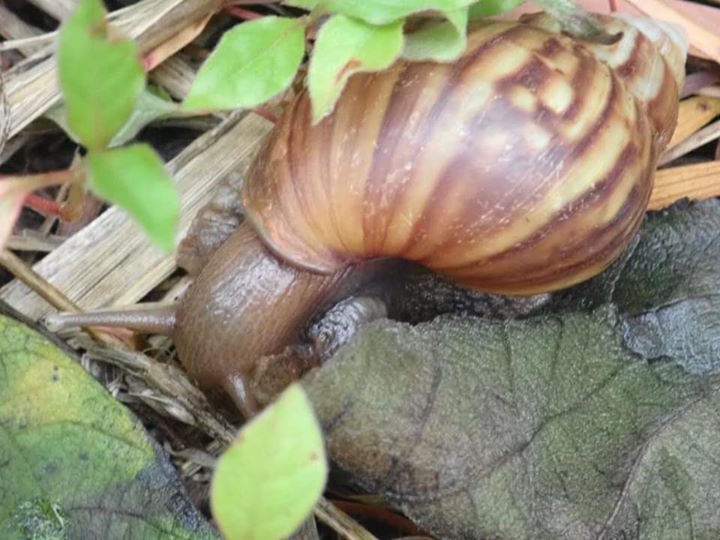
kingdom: Animalia
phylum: Mollusca
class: Gastropoda
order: Stylommatophora
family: Achatinidae
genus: Lissachatina
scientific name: Lissachatina fulica
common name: Giant african snail
